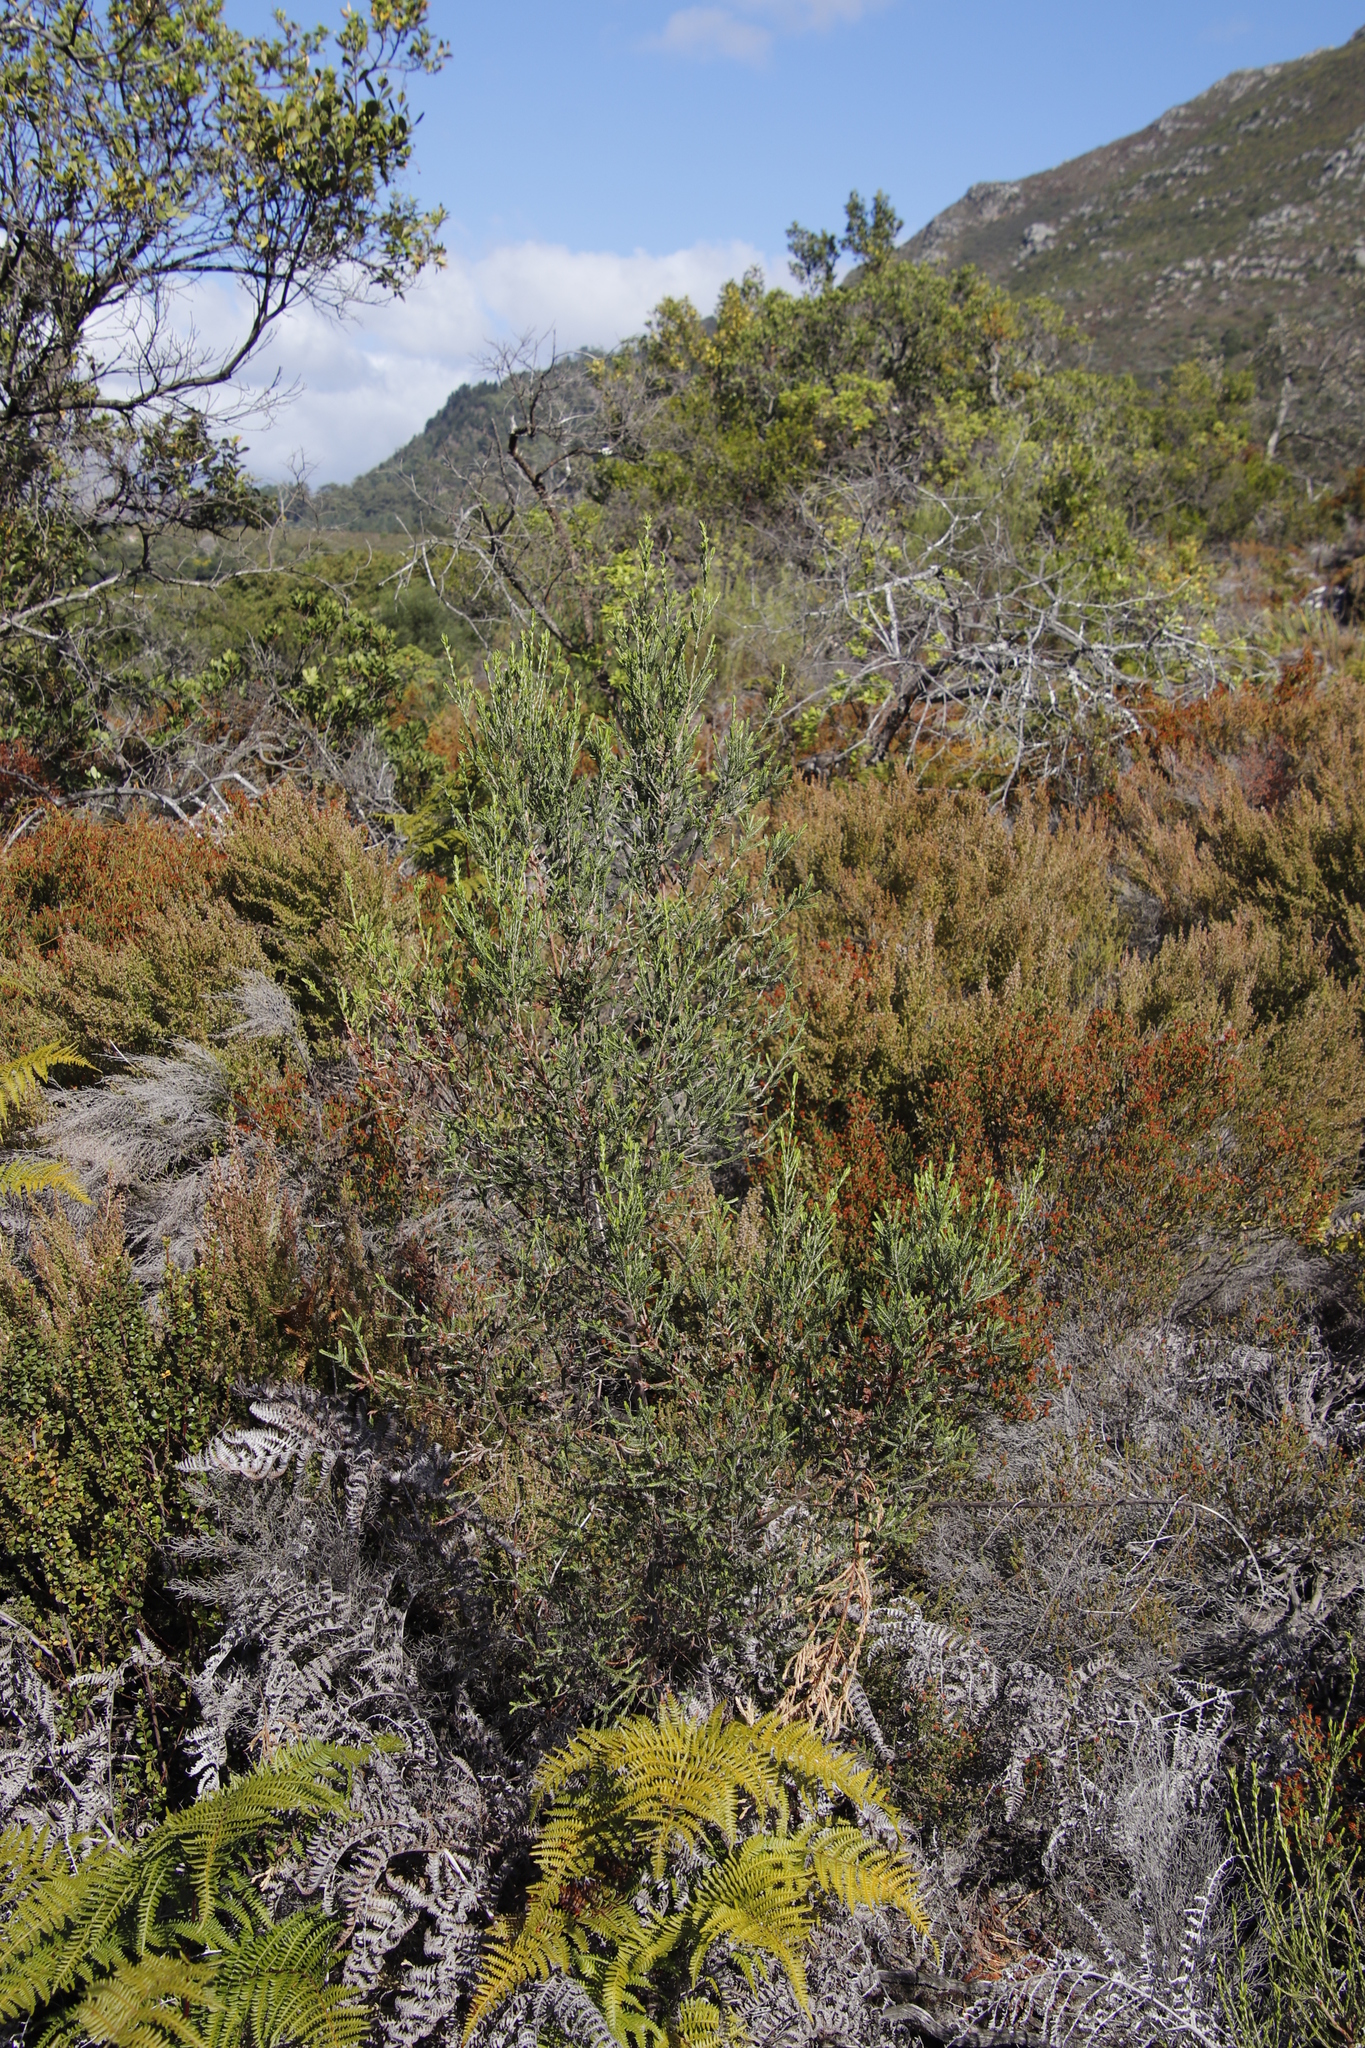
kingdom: Plantae
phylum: Tracheophyta
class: Magnoliopsida
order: Malvales
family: Thymelaeaceae
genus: Passerina
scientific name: Passerina corymbosa
